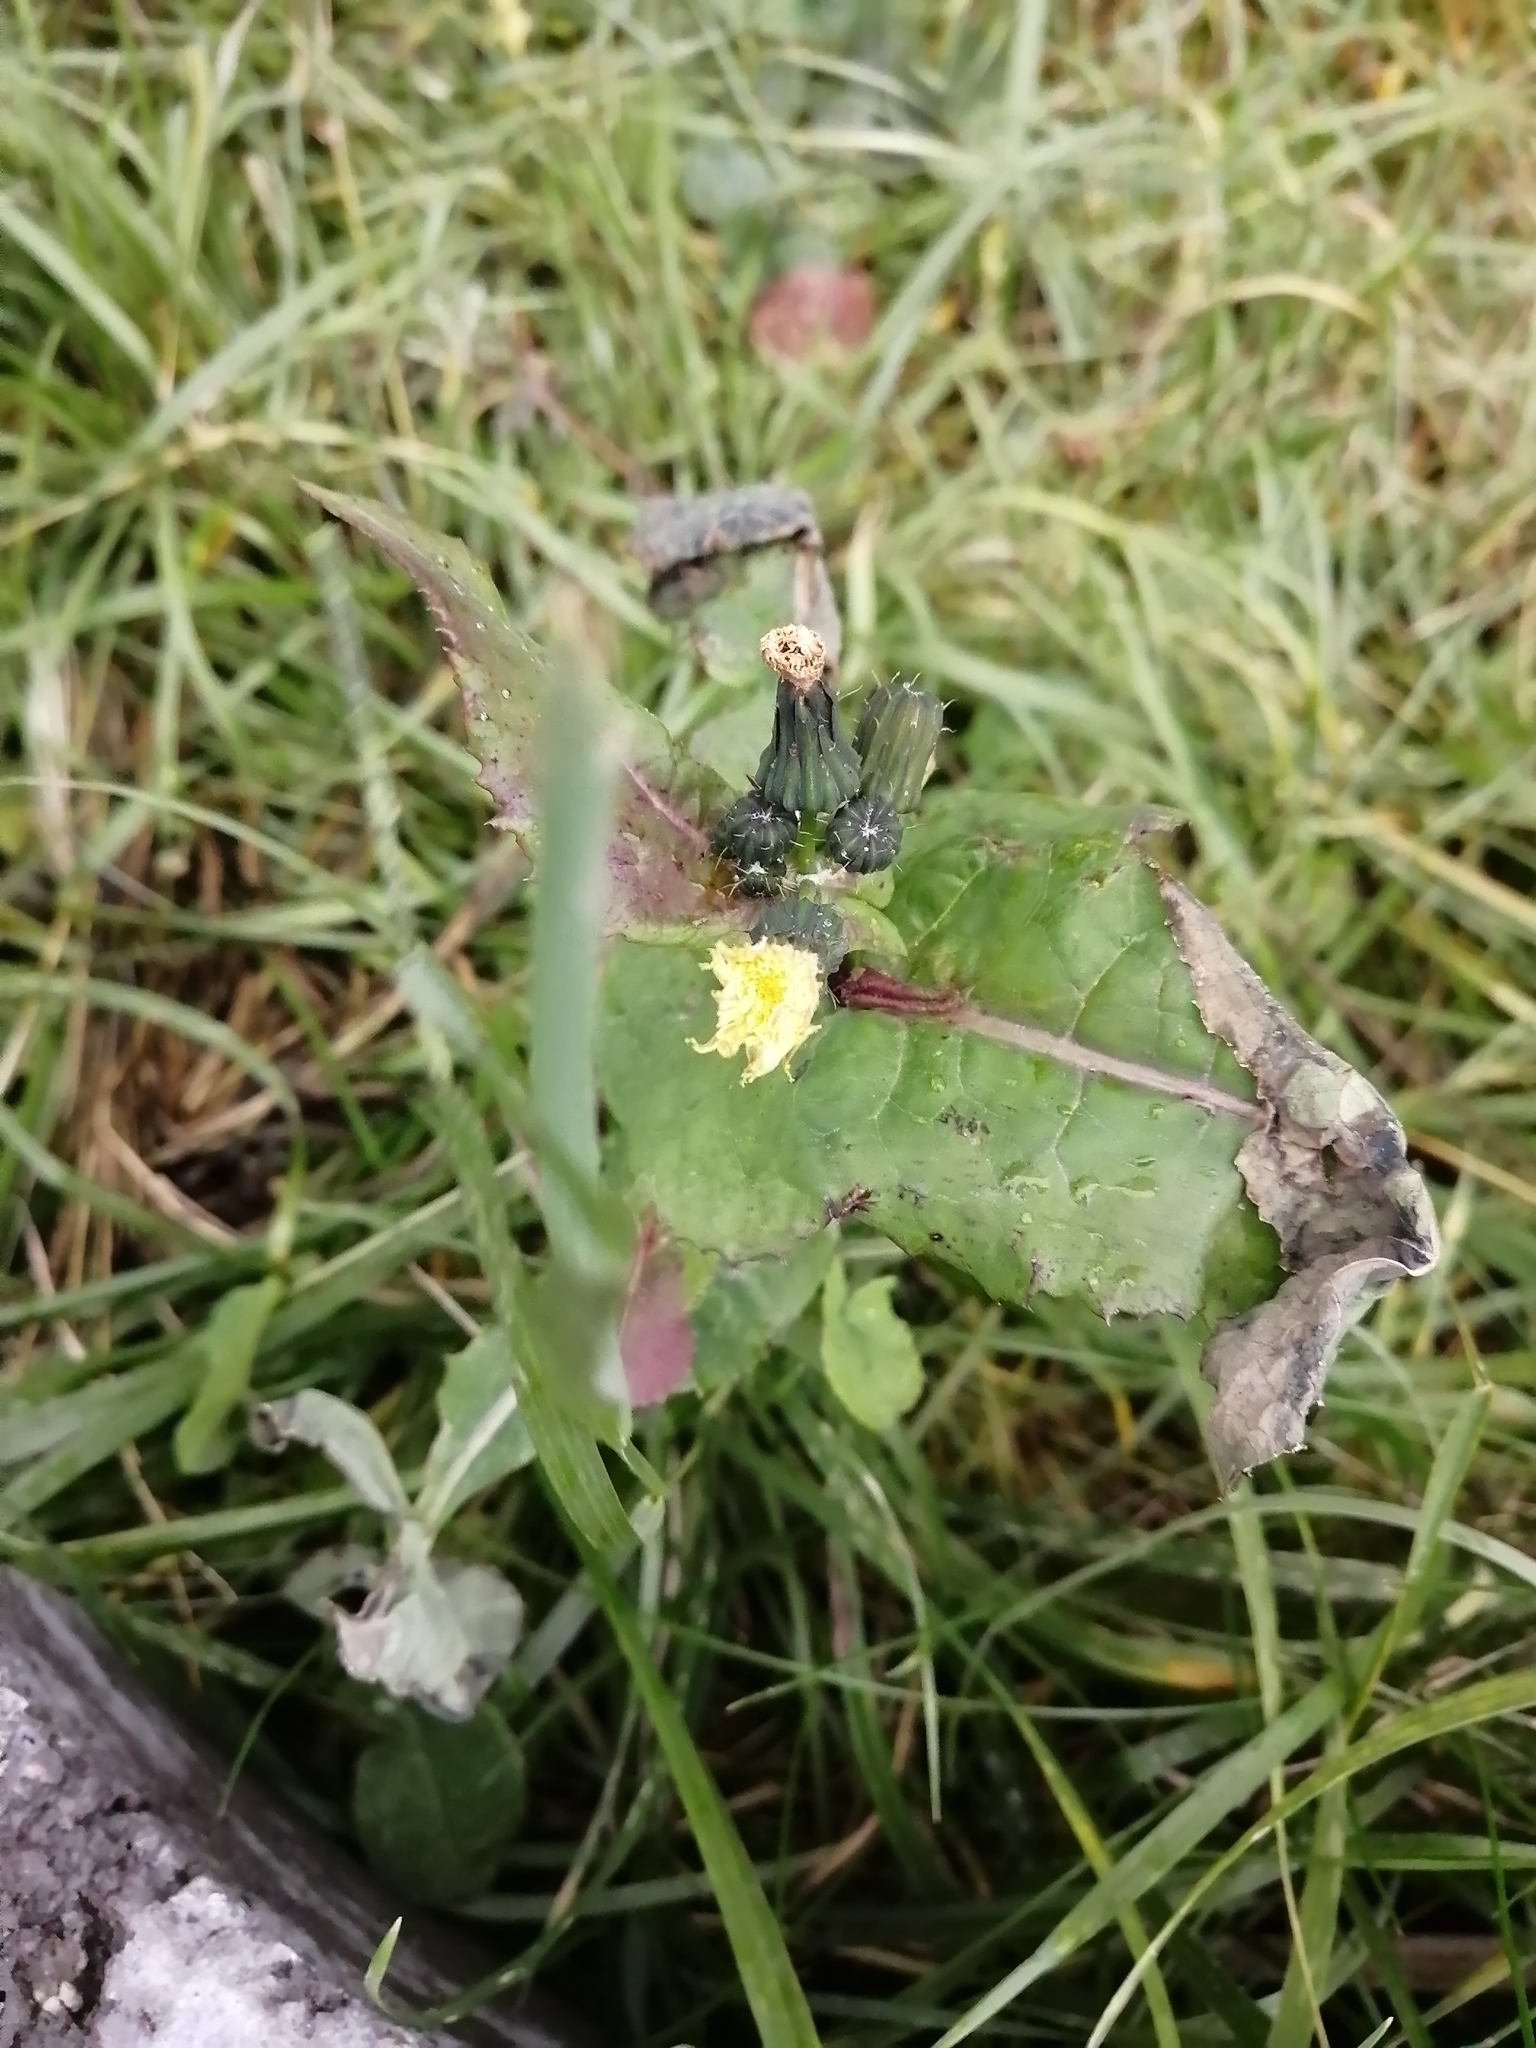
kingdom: Plantae
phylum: Tracheophyta
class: Magnoliopsida
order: Asterales
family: Asteraceae
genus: Sonchus
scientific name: Sonchus oleraceus
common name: Common sowthistle
